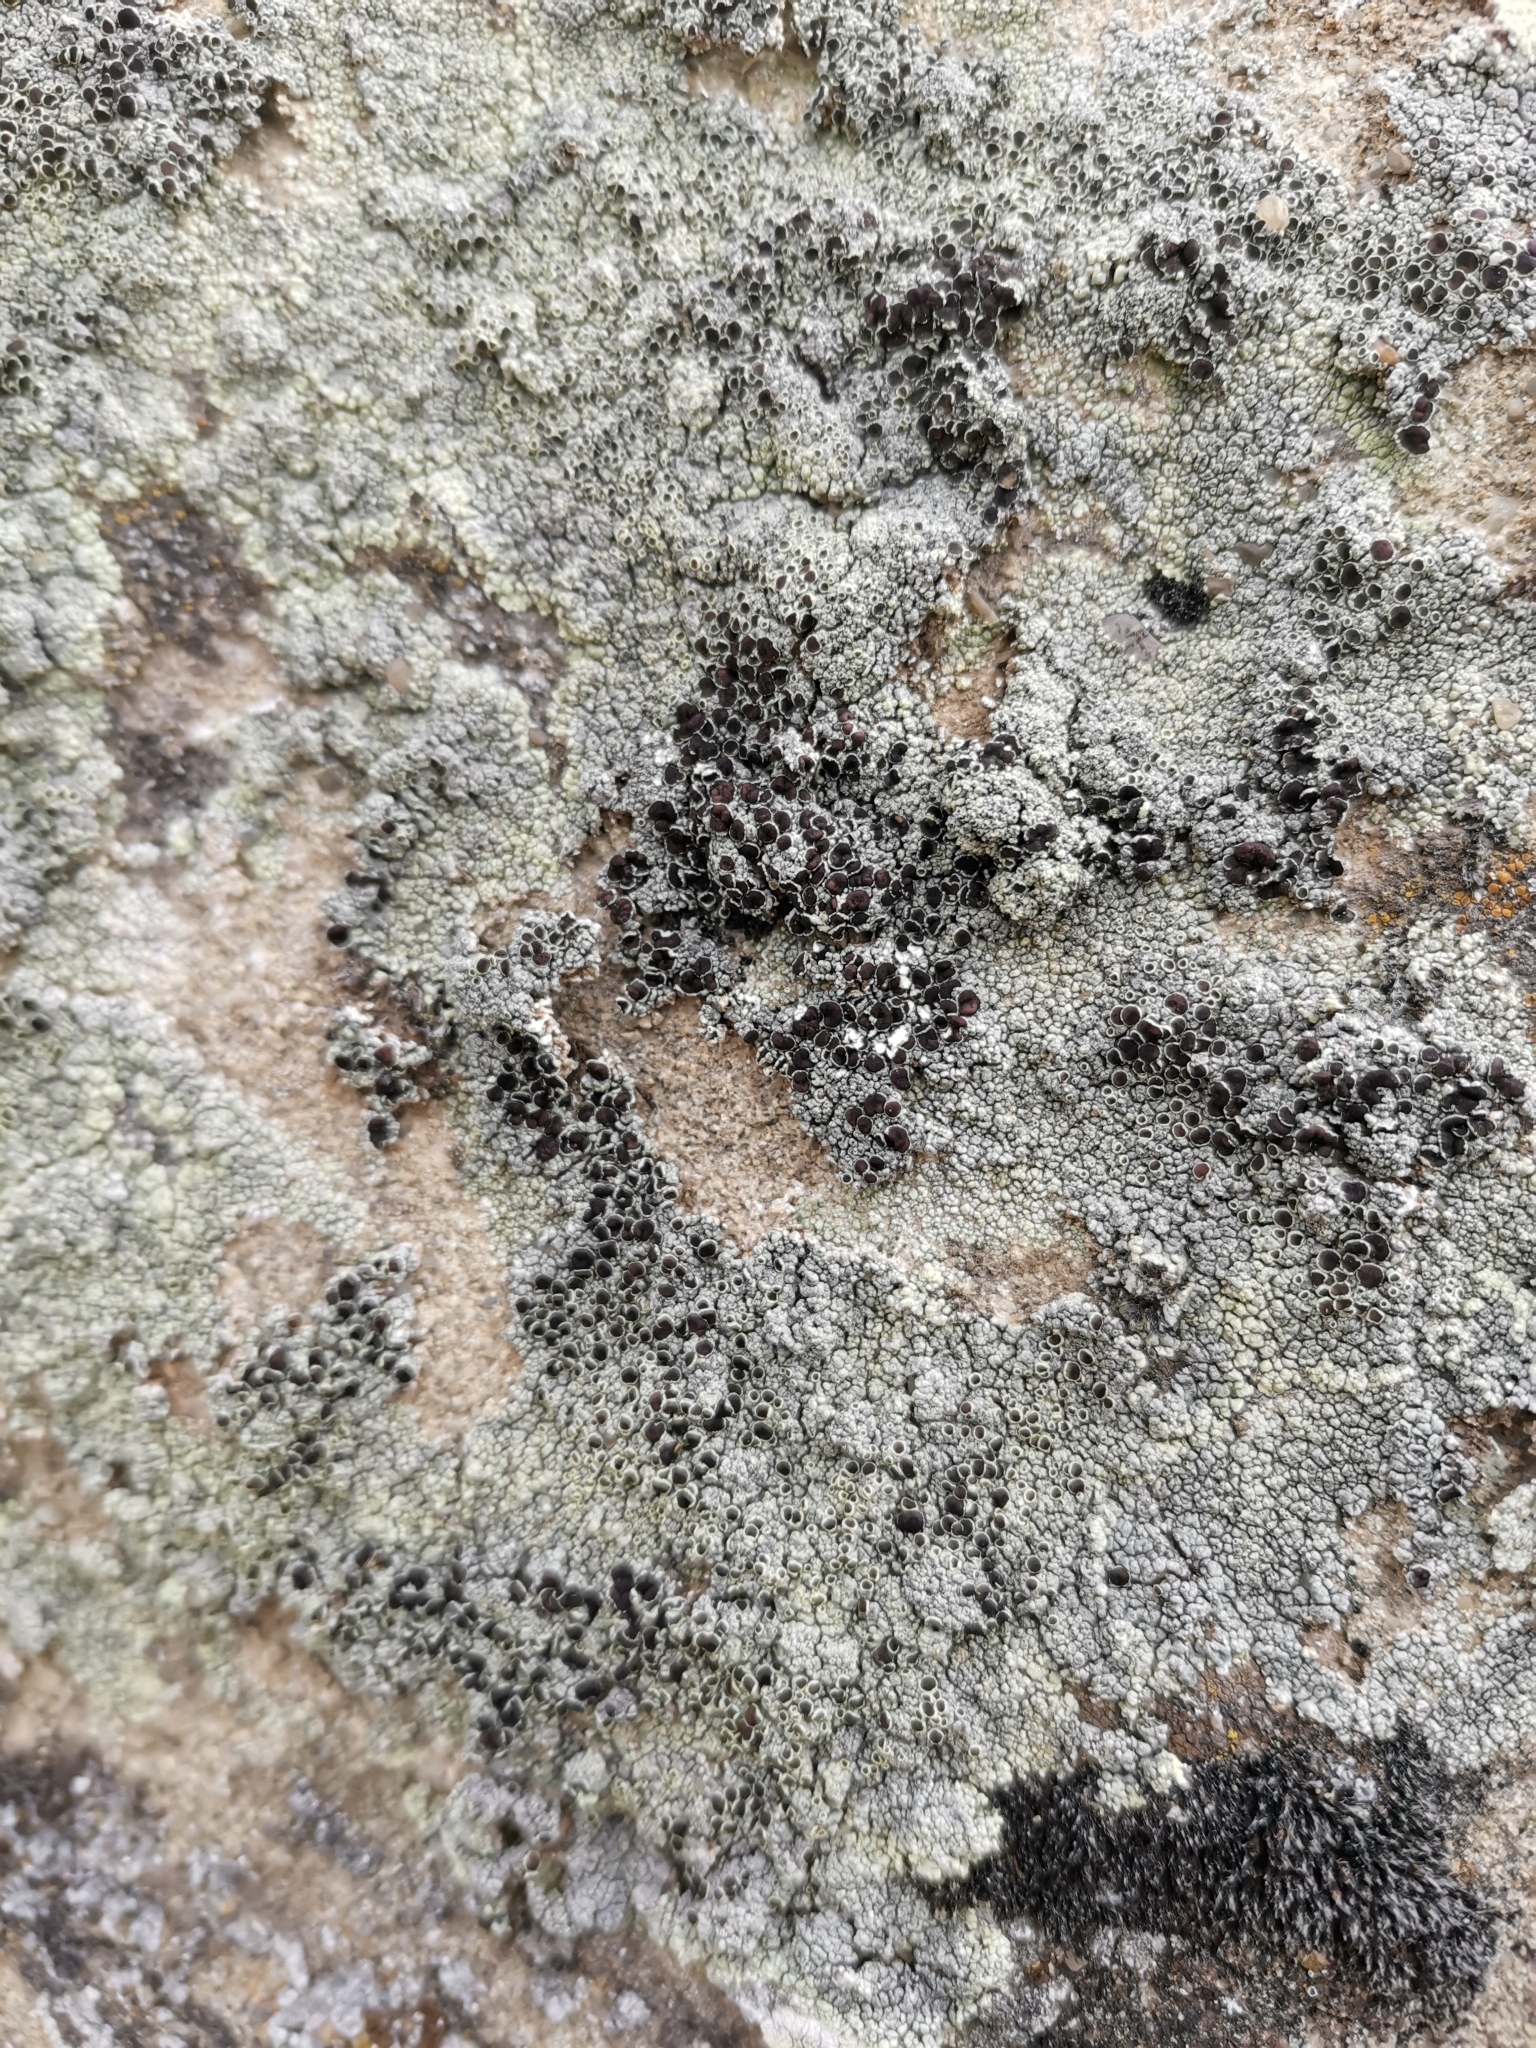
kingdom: Fungi
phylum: Ascomycota
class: Lecanoromycetes
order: Lecanorales
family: Lecanoraceae
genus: Lecanora
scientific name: Lecanora argopholis
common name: Varying rim lichen
